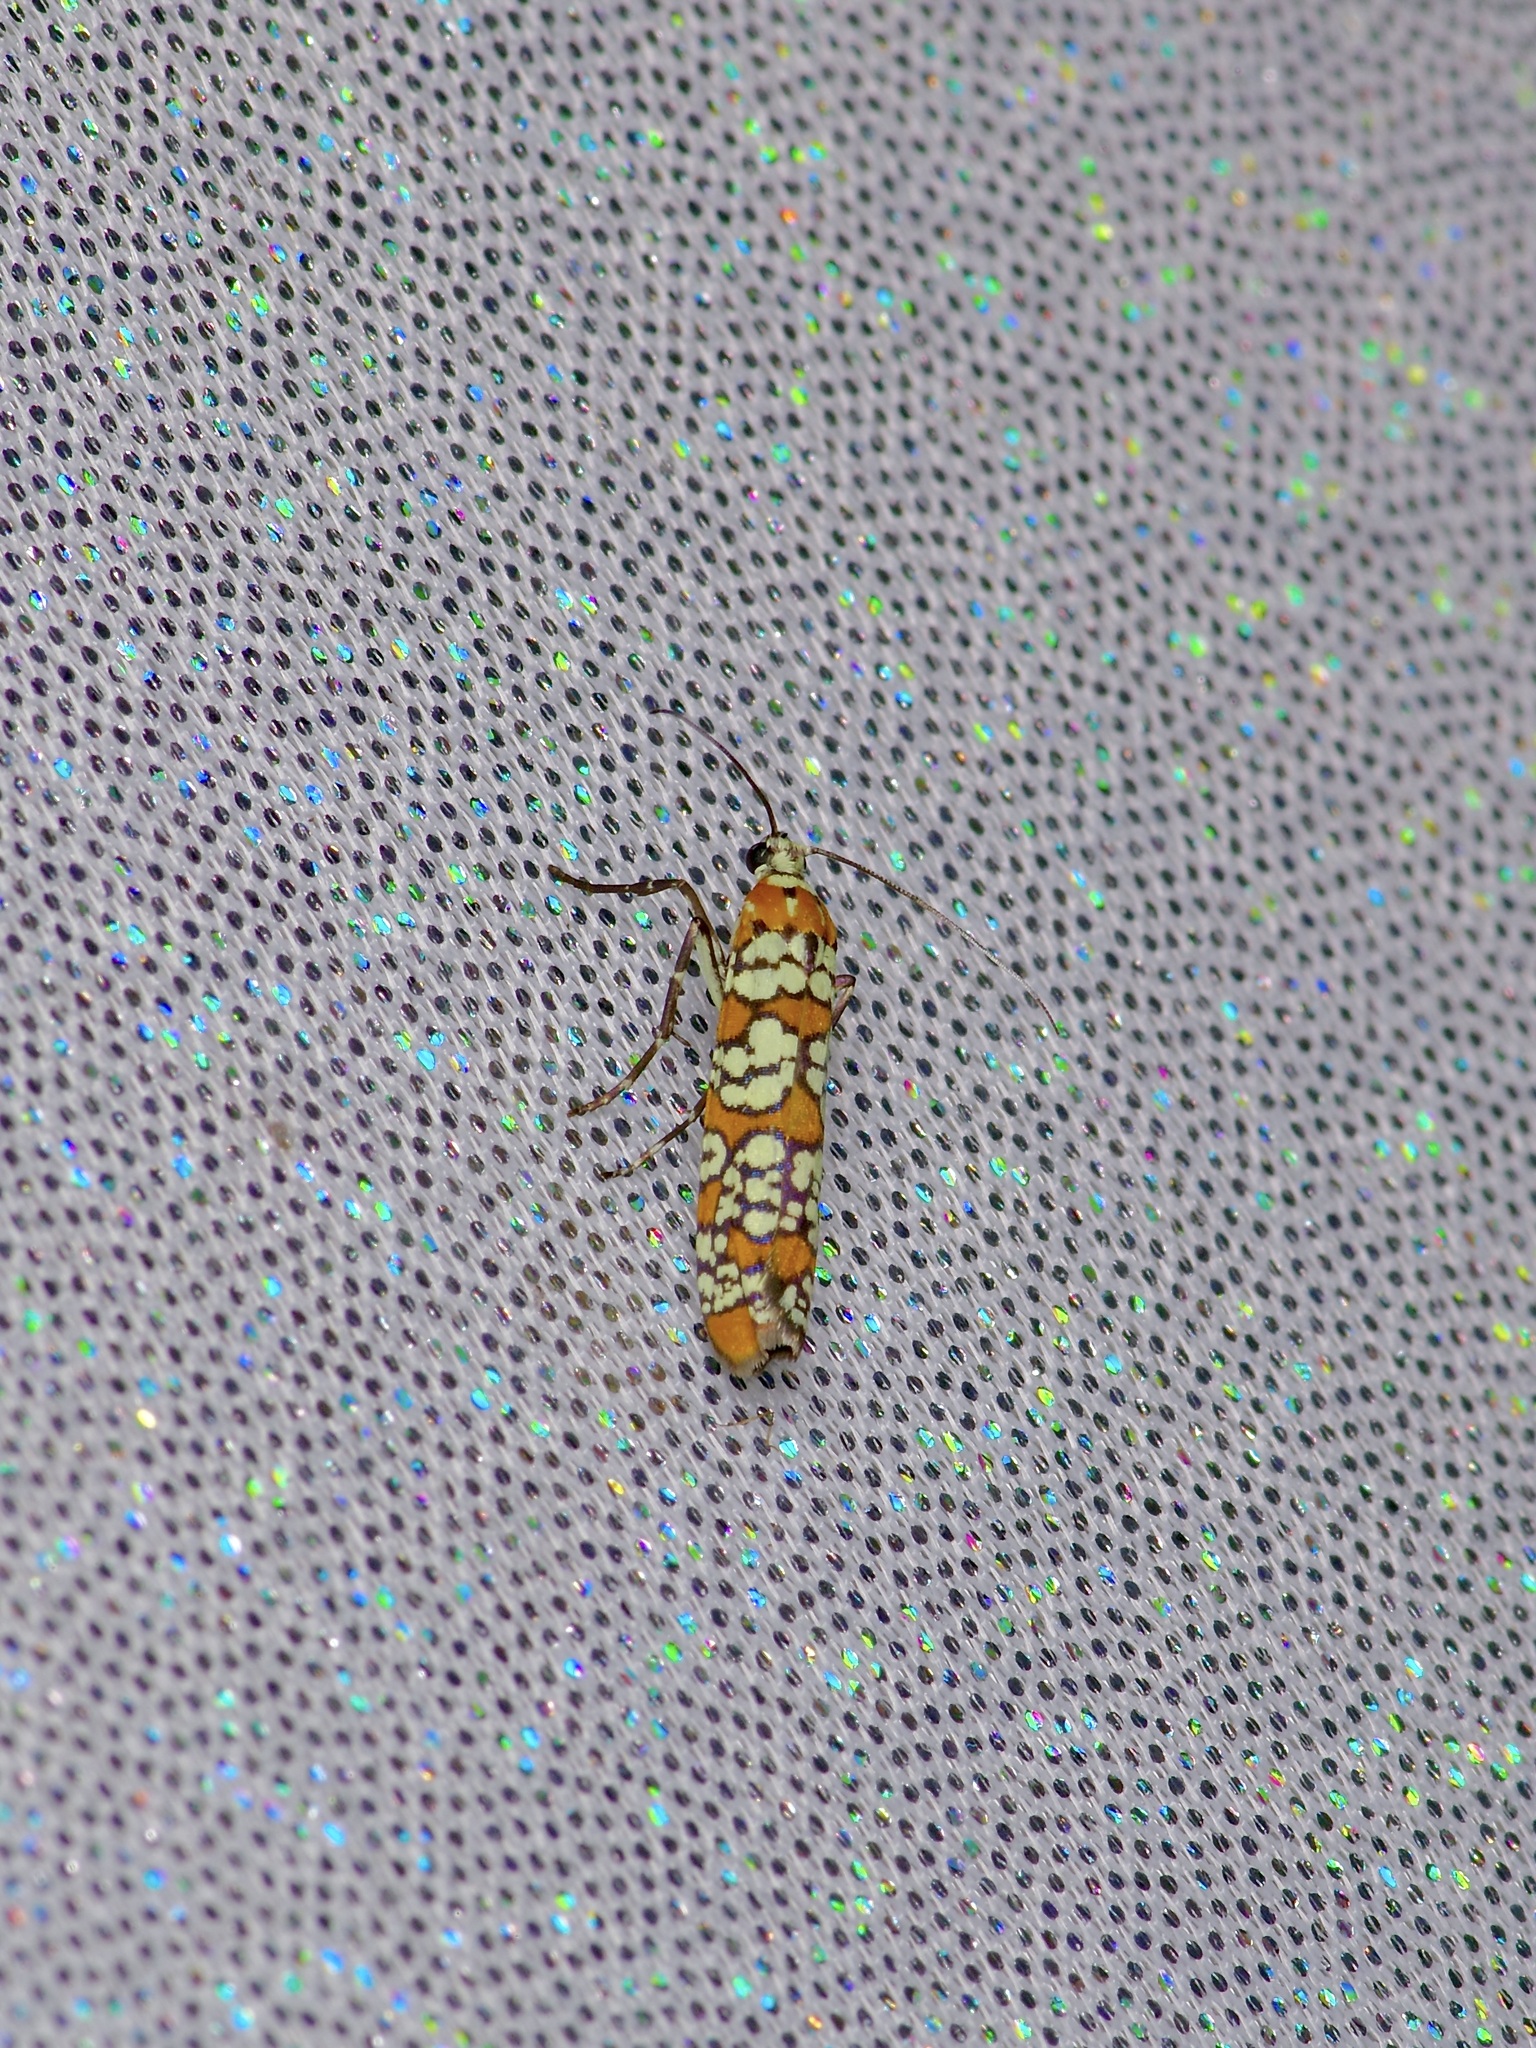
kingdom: Animalia
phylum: Arthropoda
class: Insecta
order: Lepidoptera
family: Attevidae
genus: Atteva
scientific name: Atteva punctella
